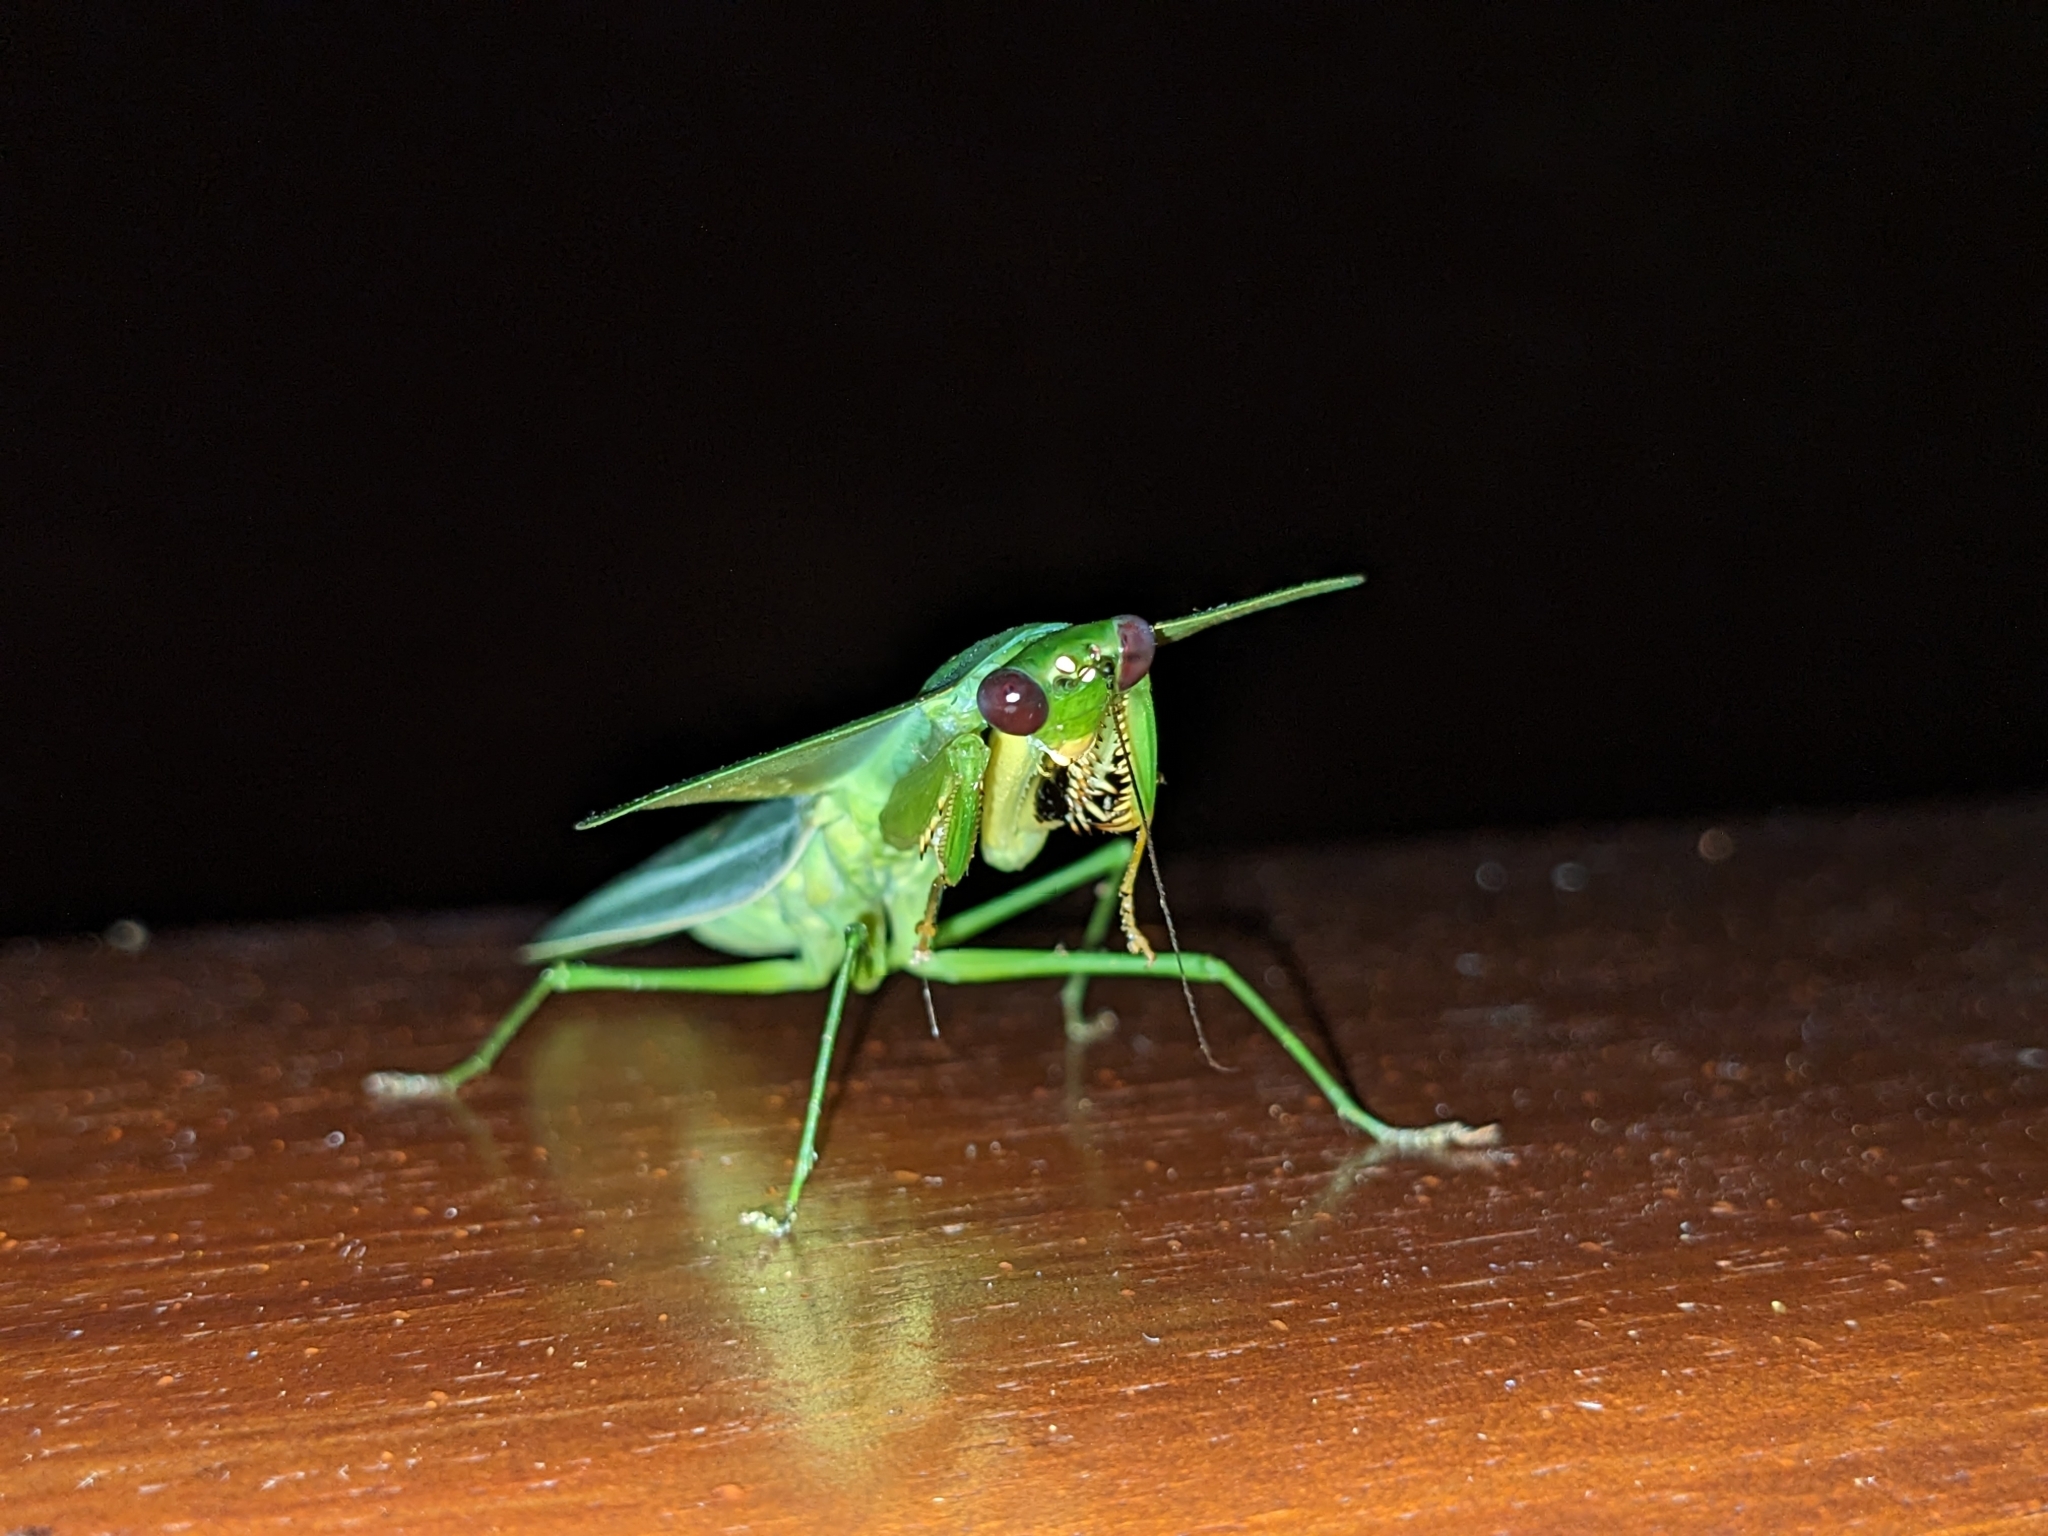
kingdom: Animalia
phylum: Arthropoda
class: Insecta
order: Mantodea
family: Mantidae
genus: Choeradodis
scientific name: Choeradodis rhombicollis
